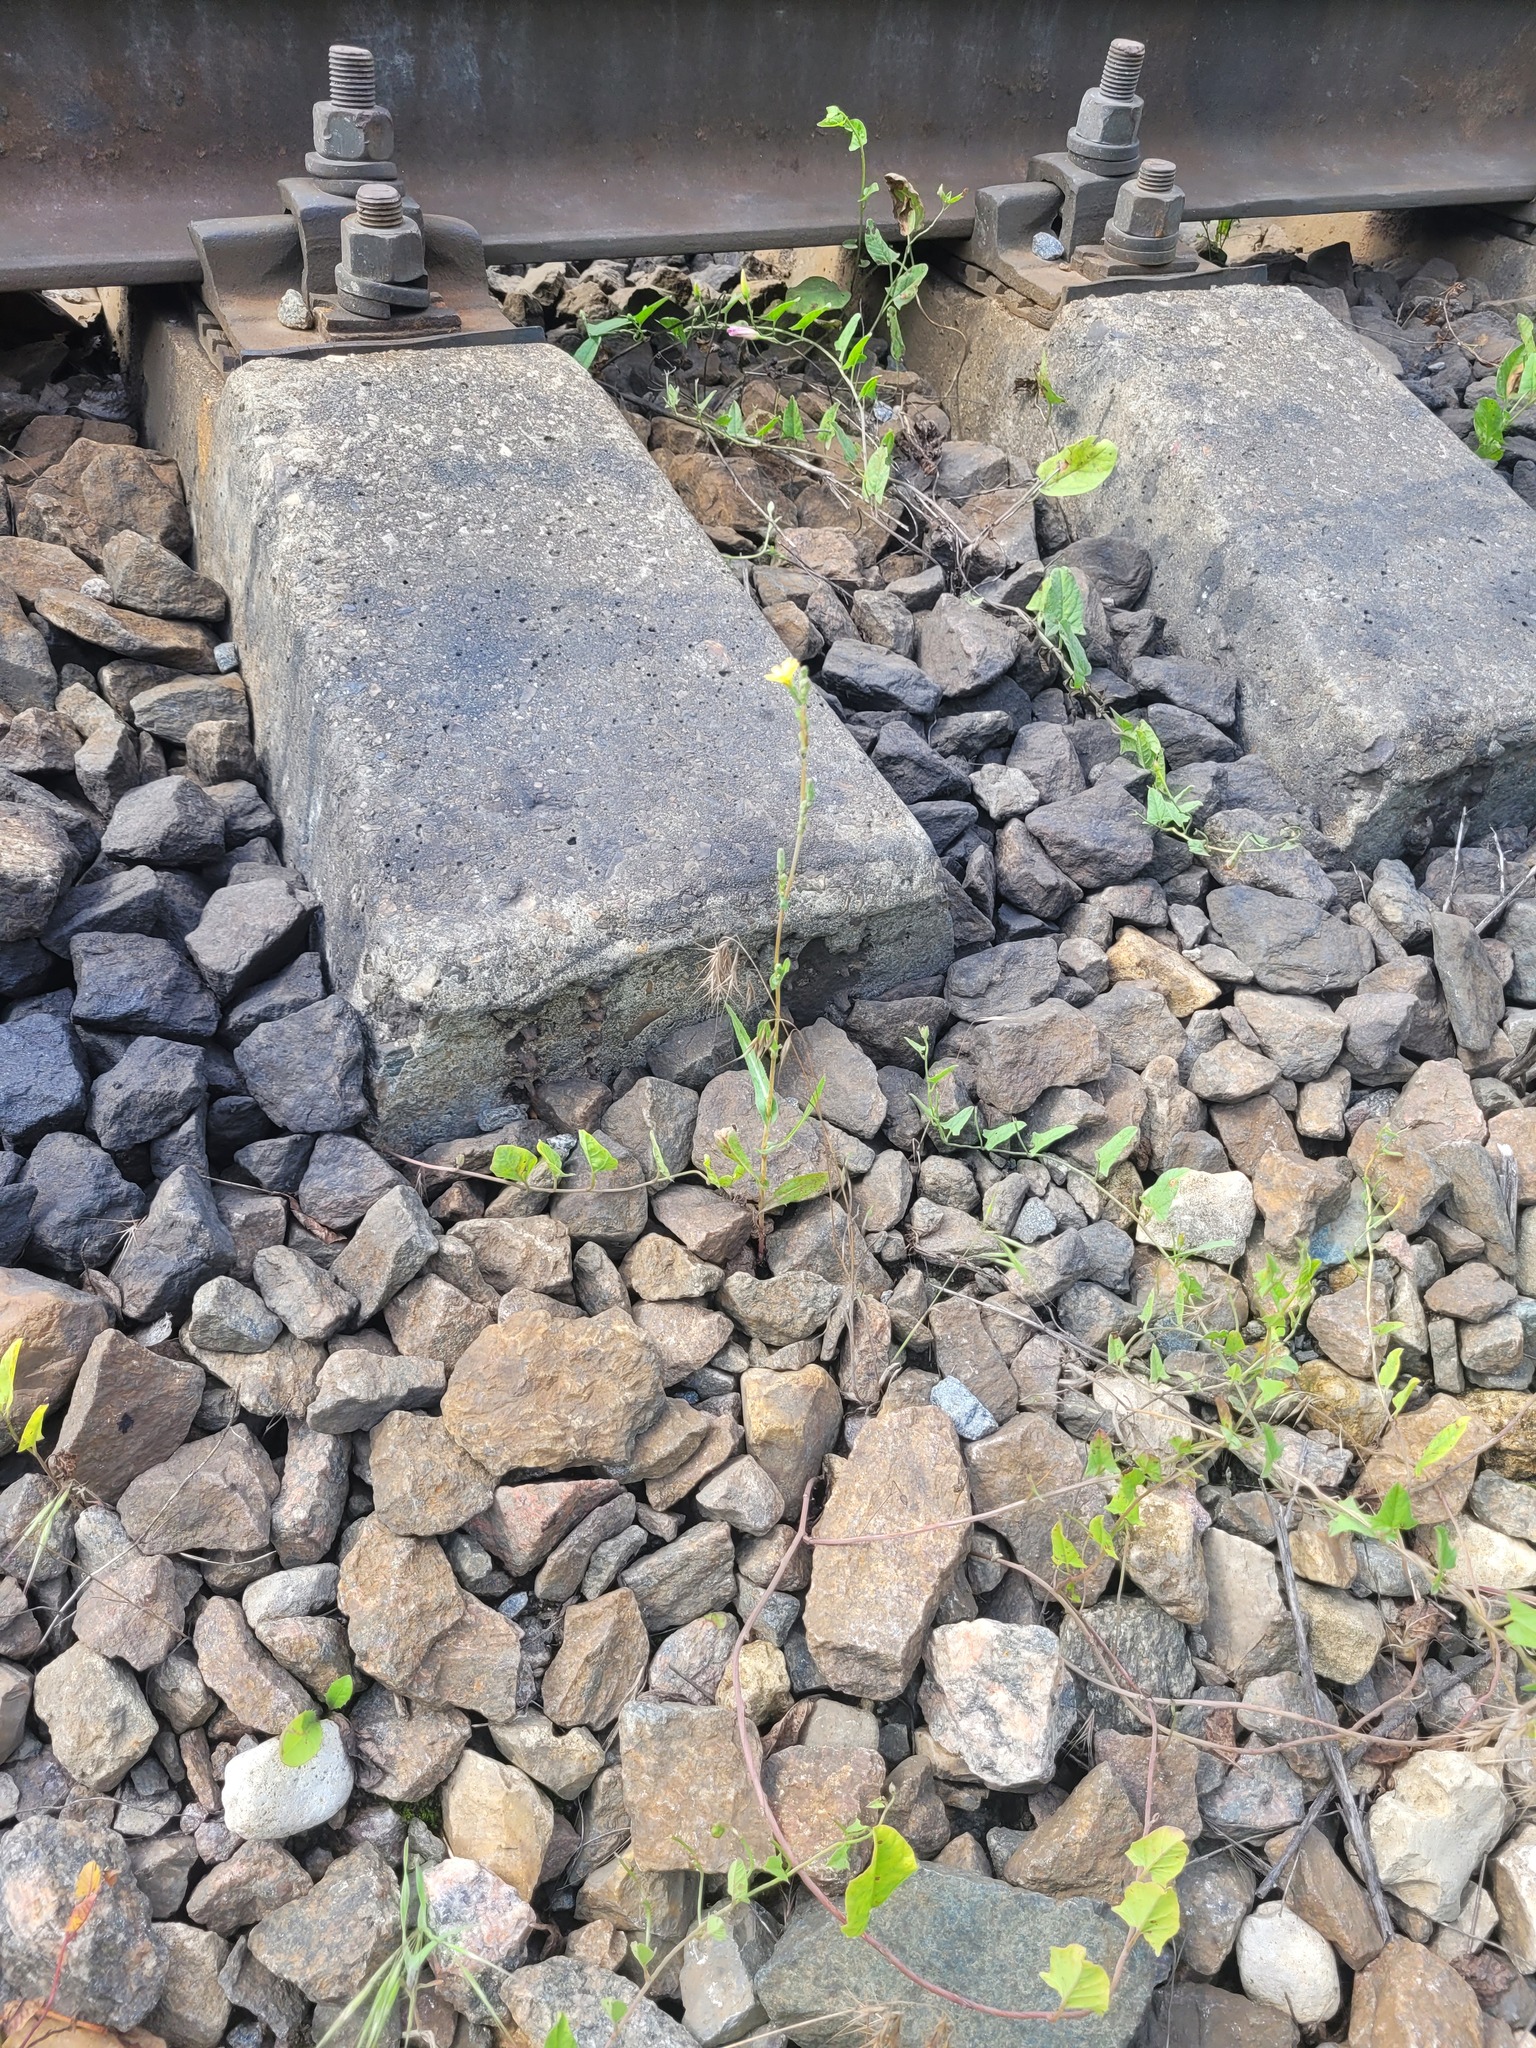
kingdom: Plantae
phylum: Tracheophyta
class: Magnoliopsida
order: Asterales
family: Asteraceae
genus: Lactuca
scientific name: Lactuca serriola
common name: Prickly lettuce
